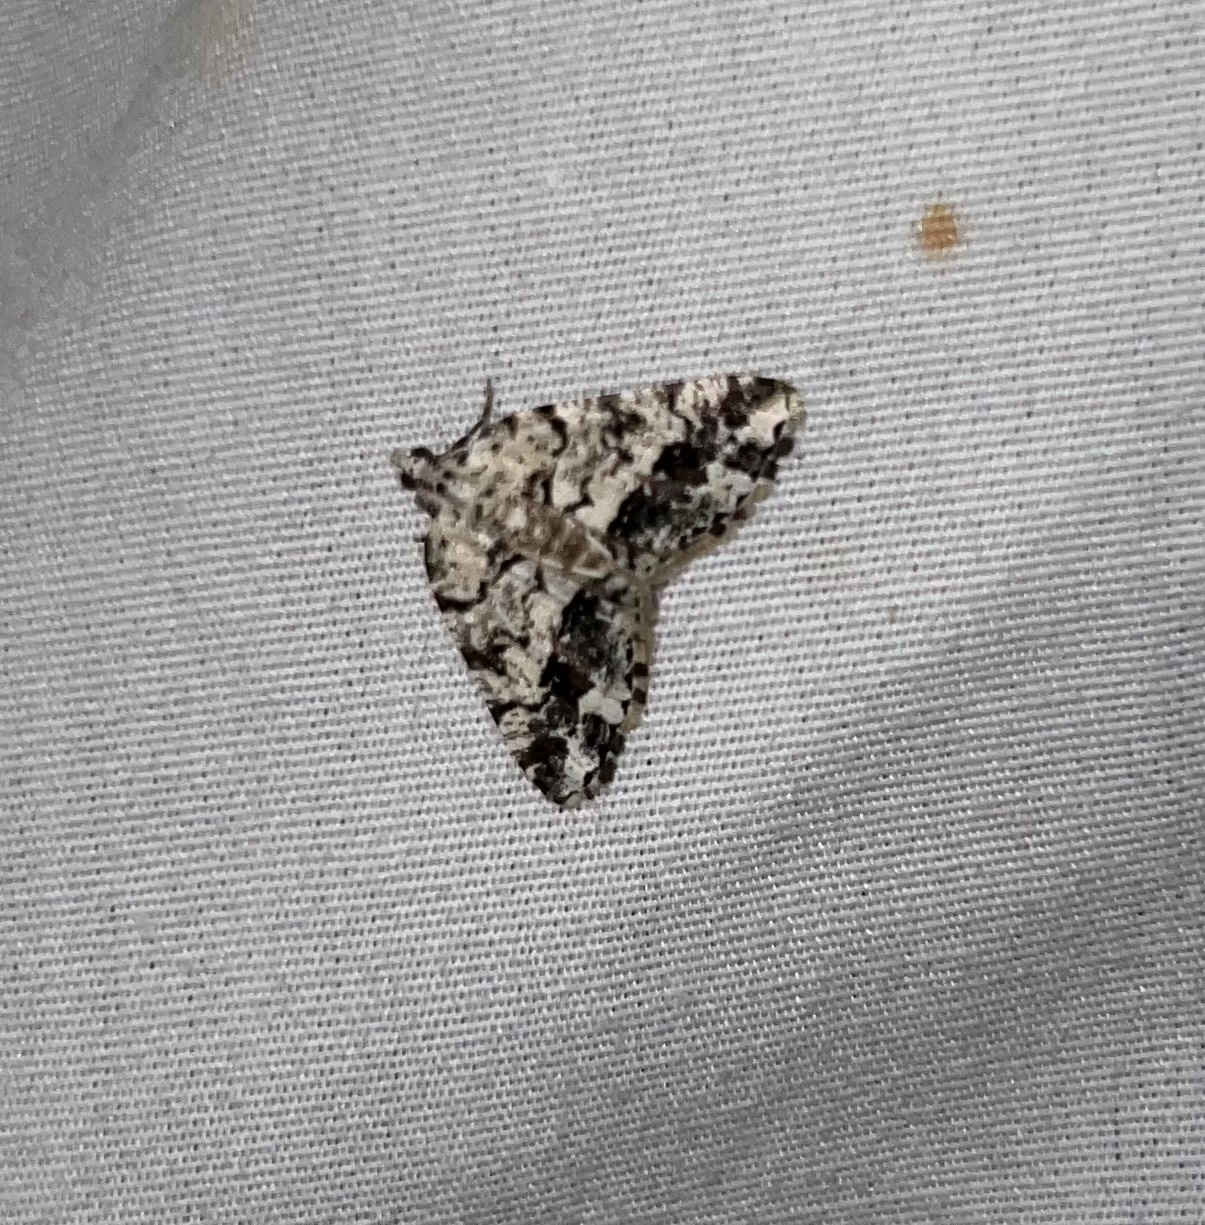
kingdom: Animalia
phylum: Arthropoda
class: Insecta
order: Lepidoptera
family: Geometridae
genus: Macaria
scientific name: Macaria graphidaria
